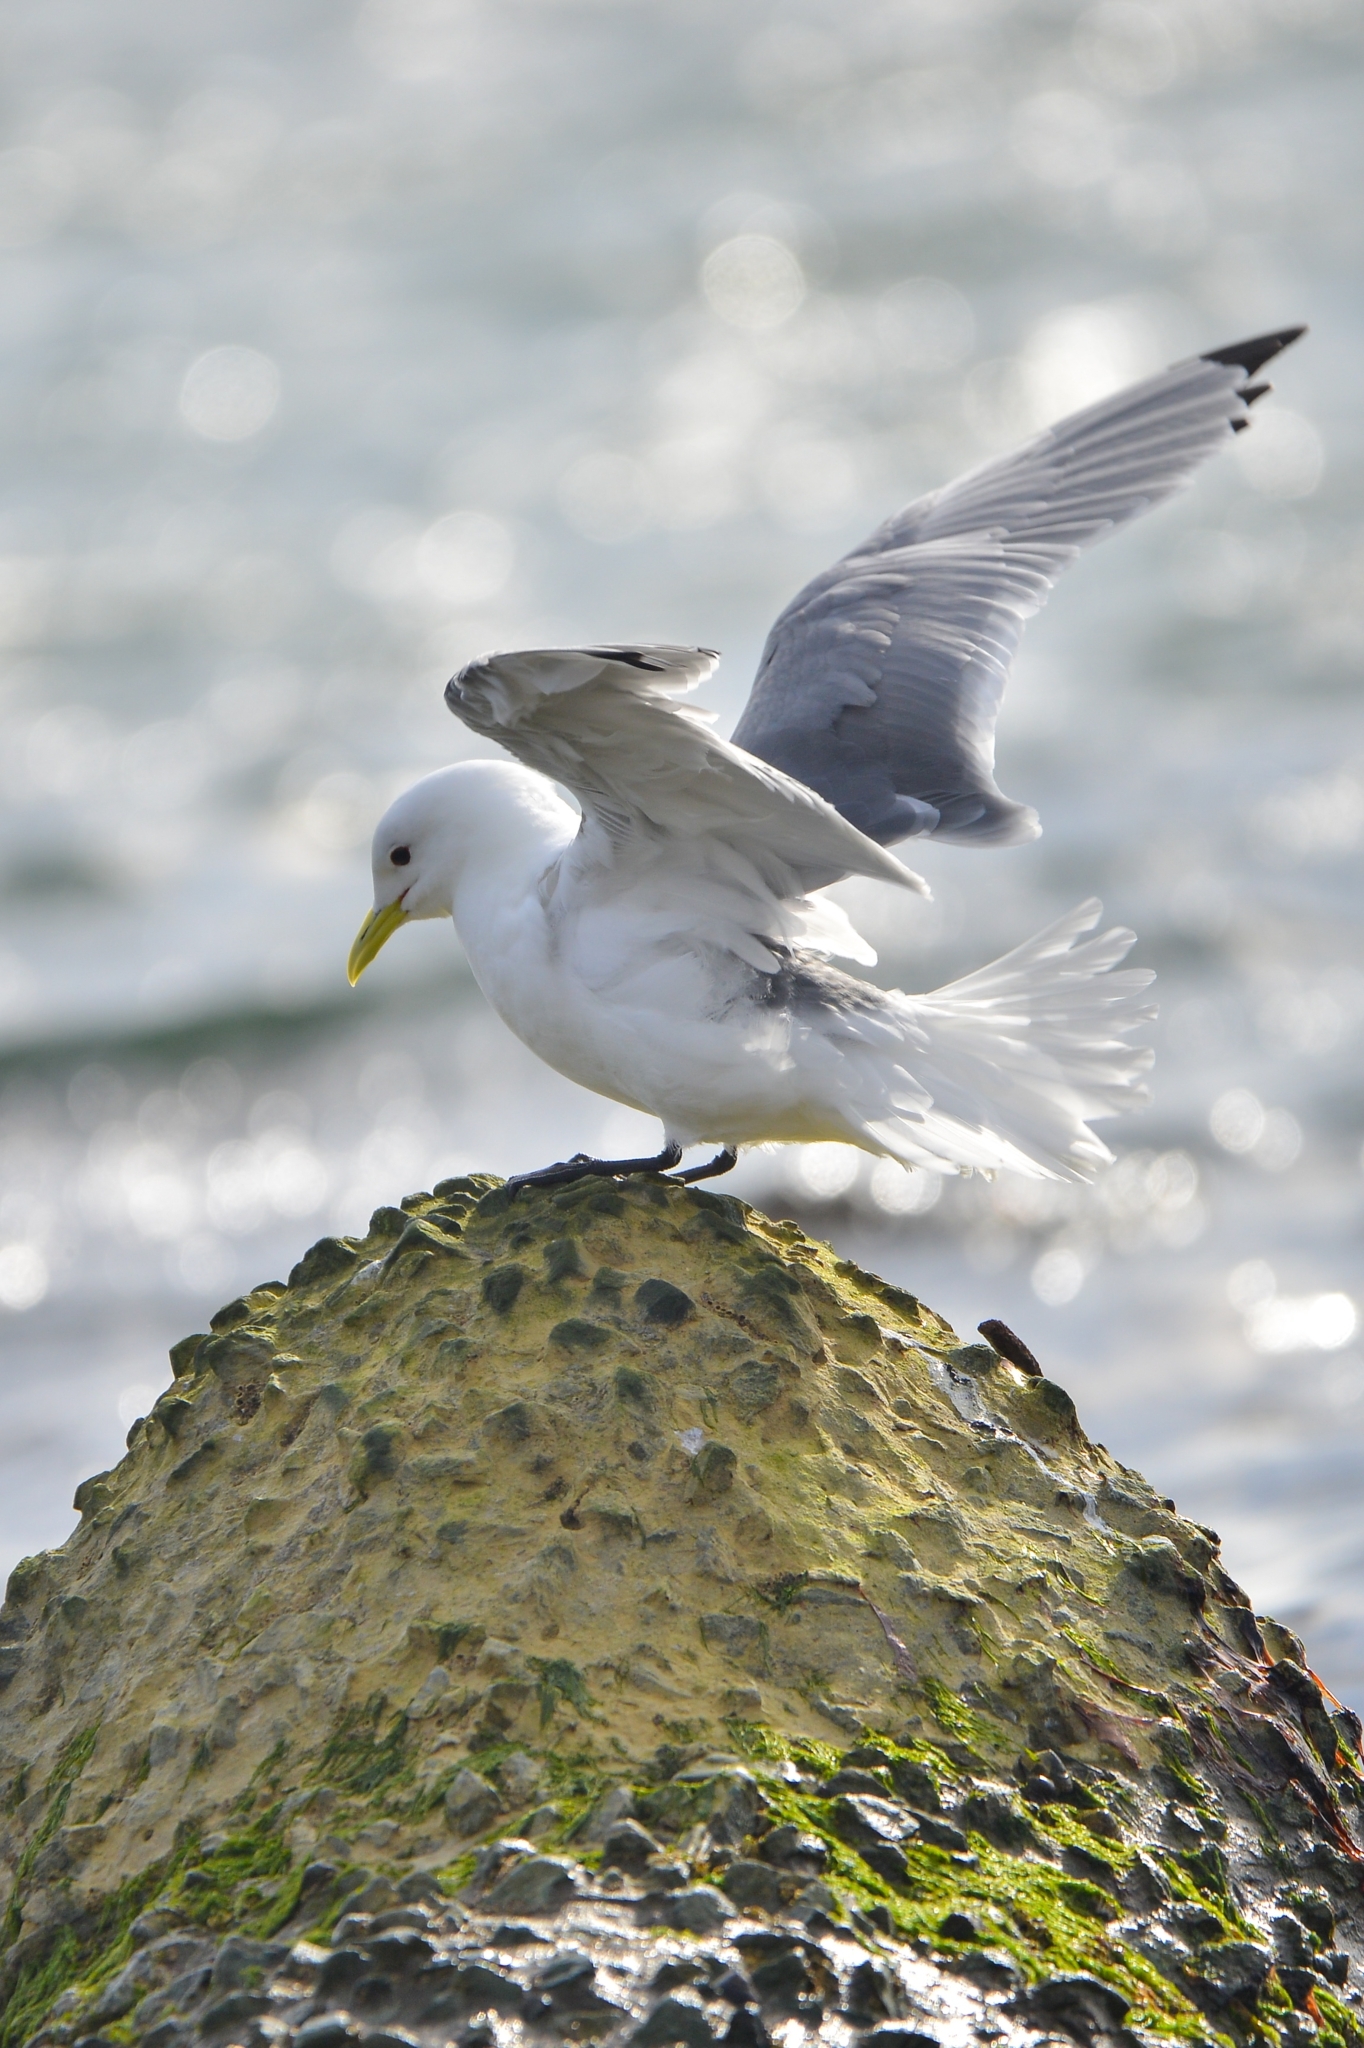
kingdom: Animalia
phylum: Chordata
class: Aves
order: Charadriiformes
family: Laridae
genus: Rissa
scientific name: Rissa tridactyla
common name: Black-legged kittiwake
